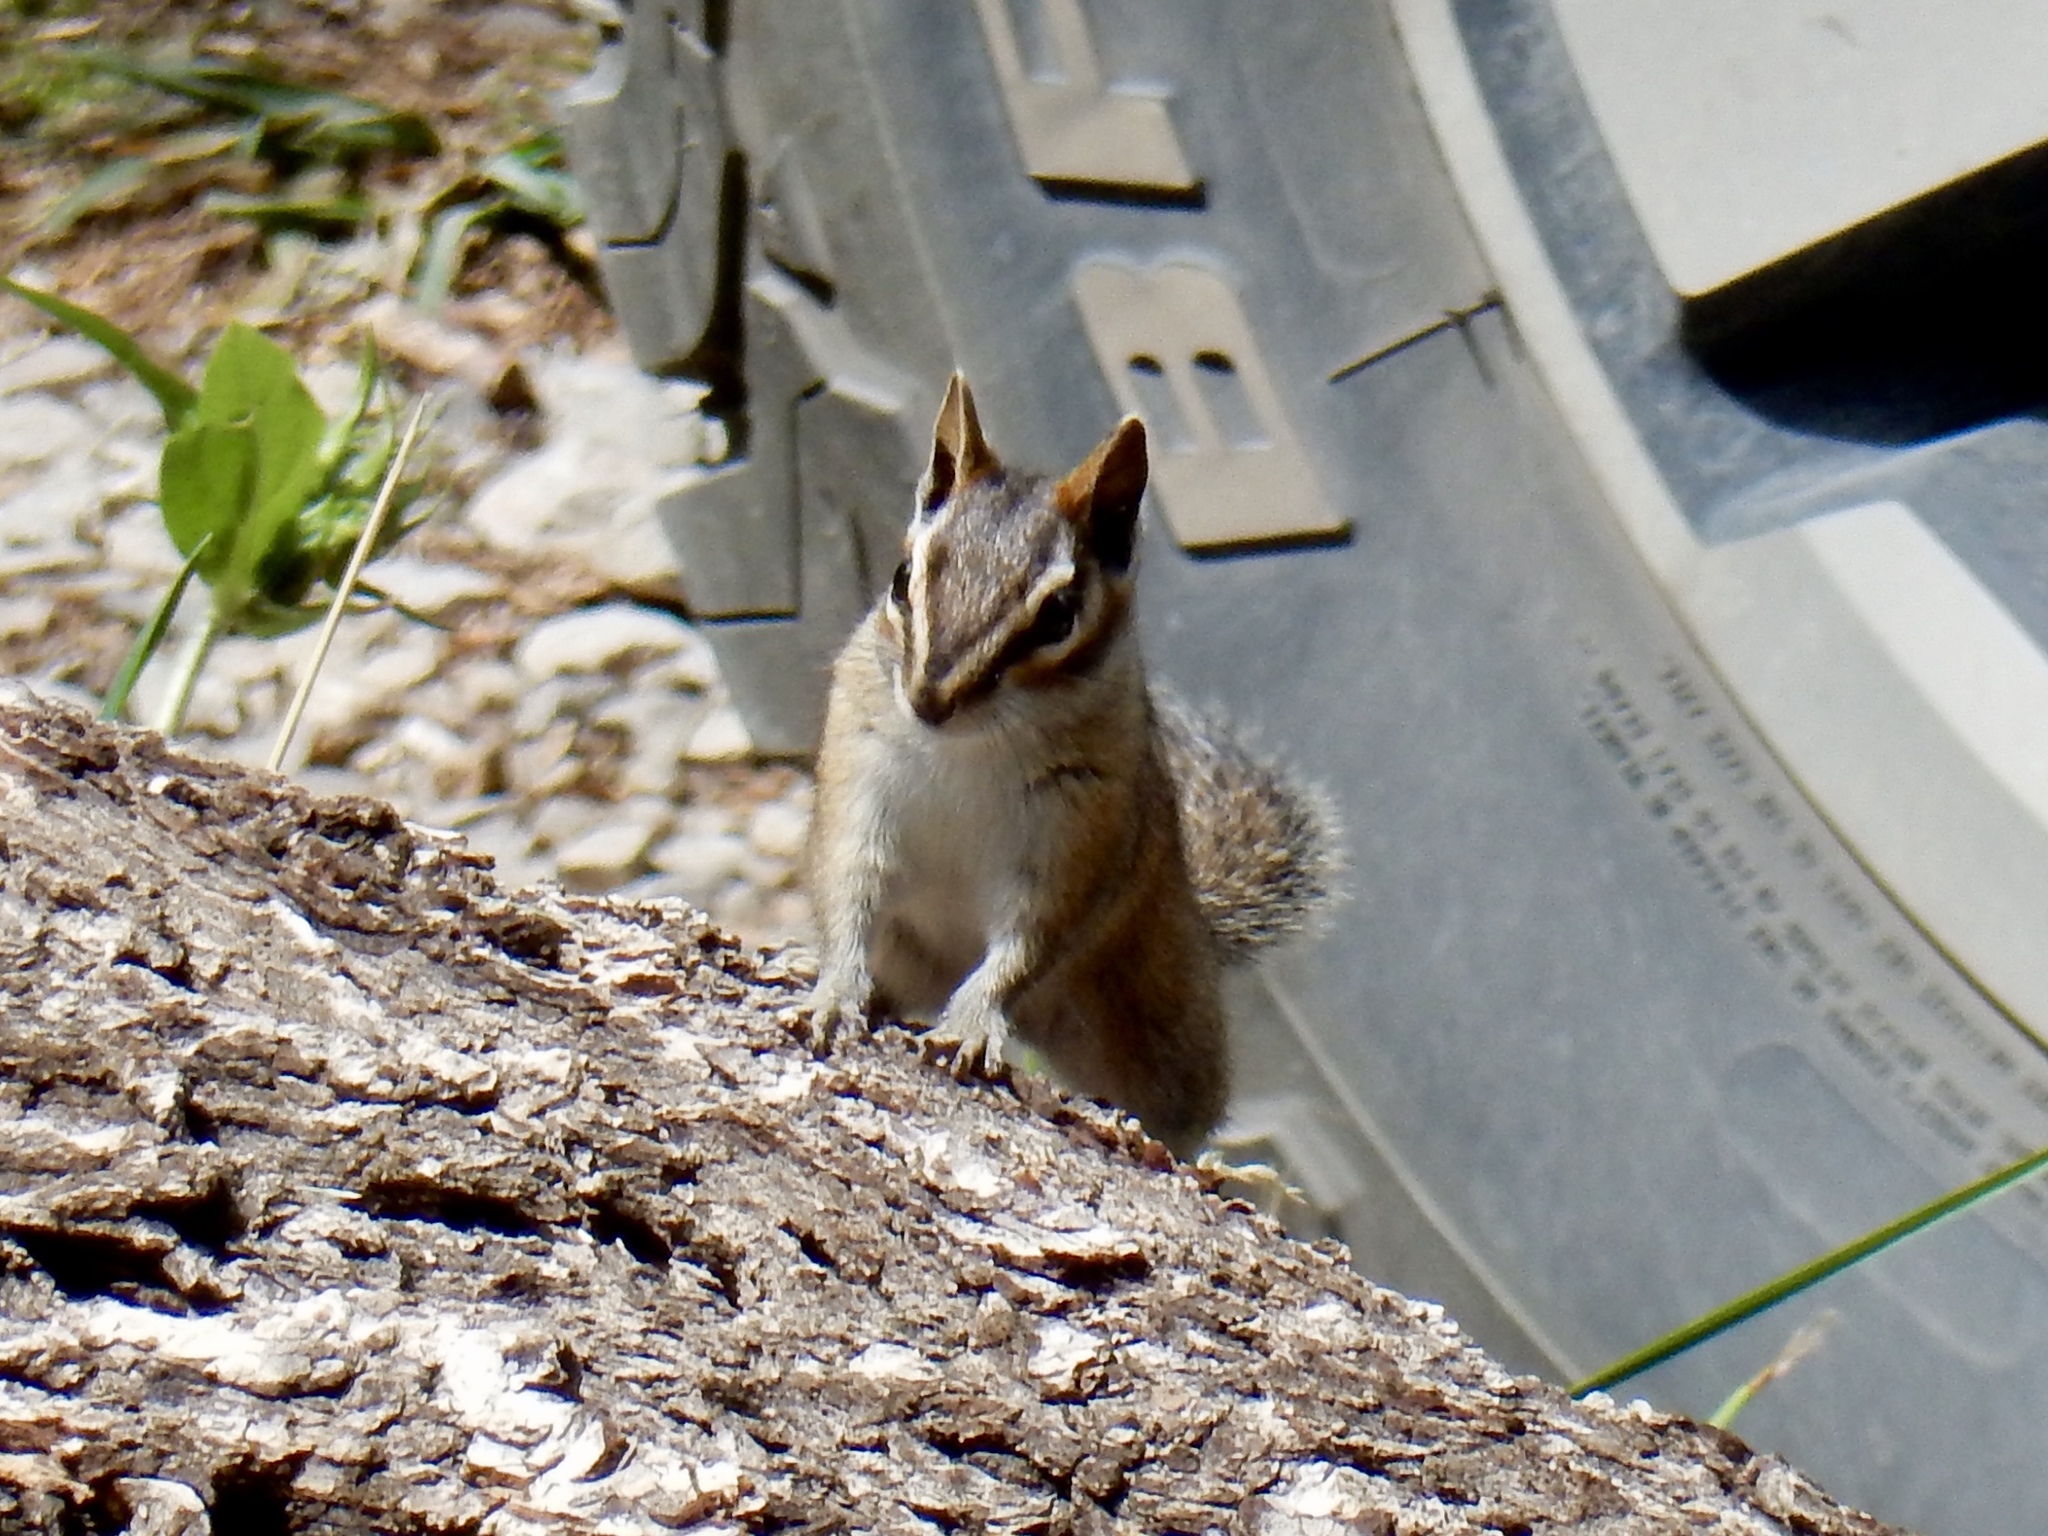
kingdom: Animalia
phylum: Chordata
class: Mammalia
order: Rodentia
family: Sciuridae
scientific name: Sciuridae
